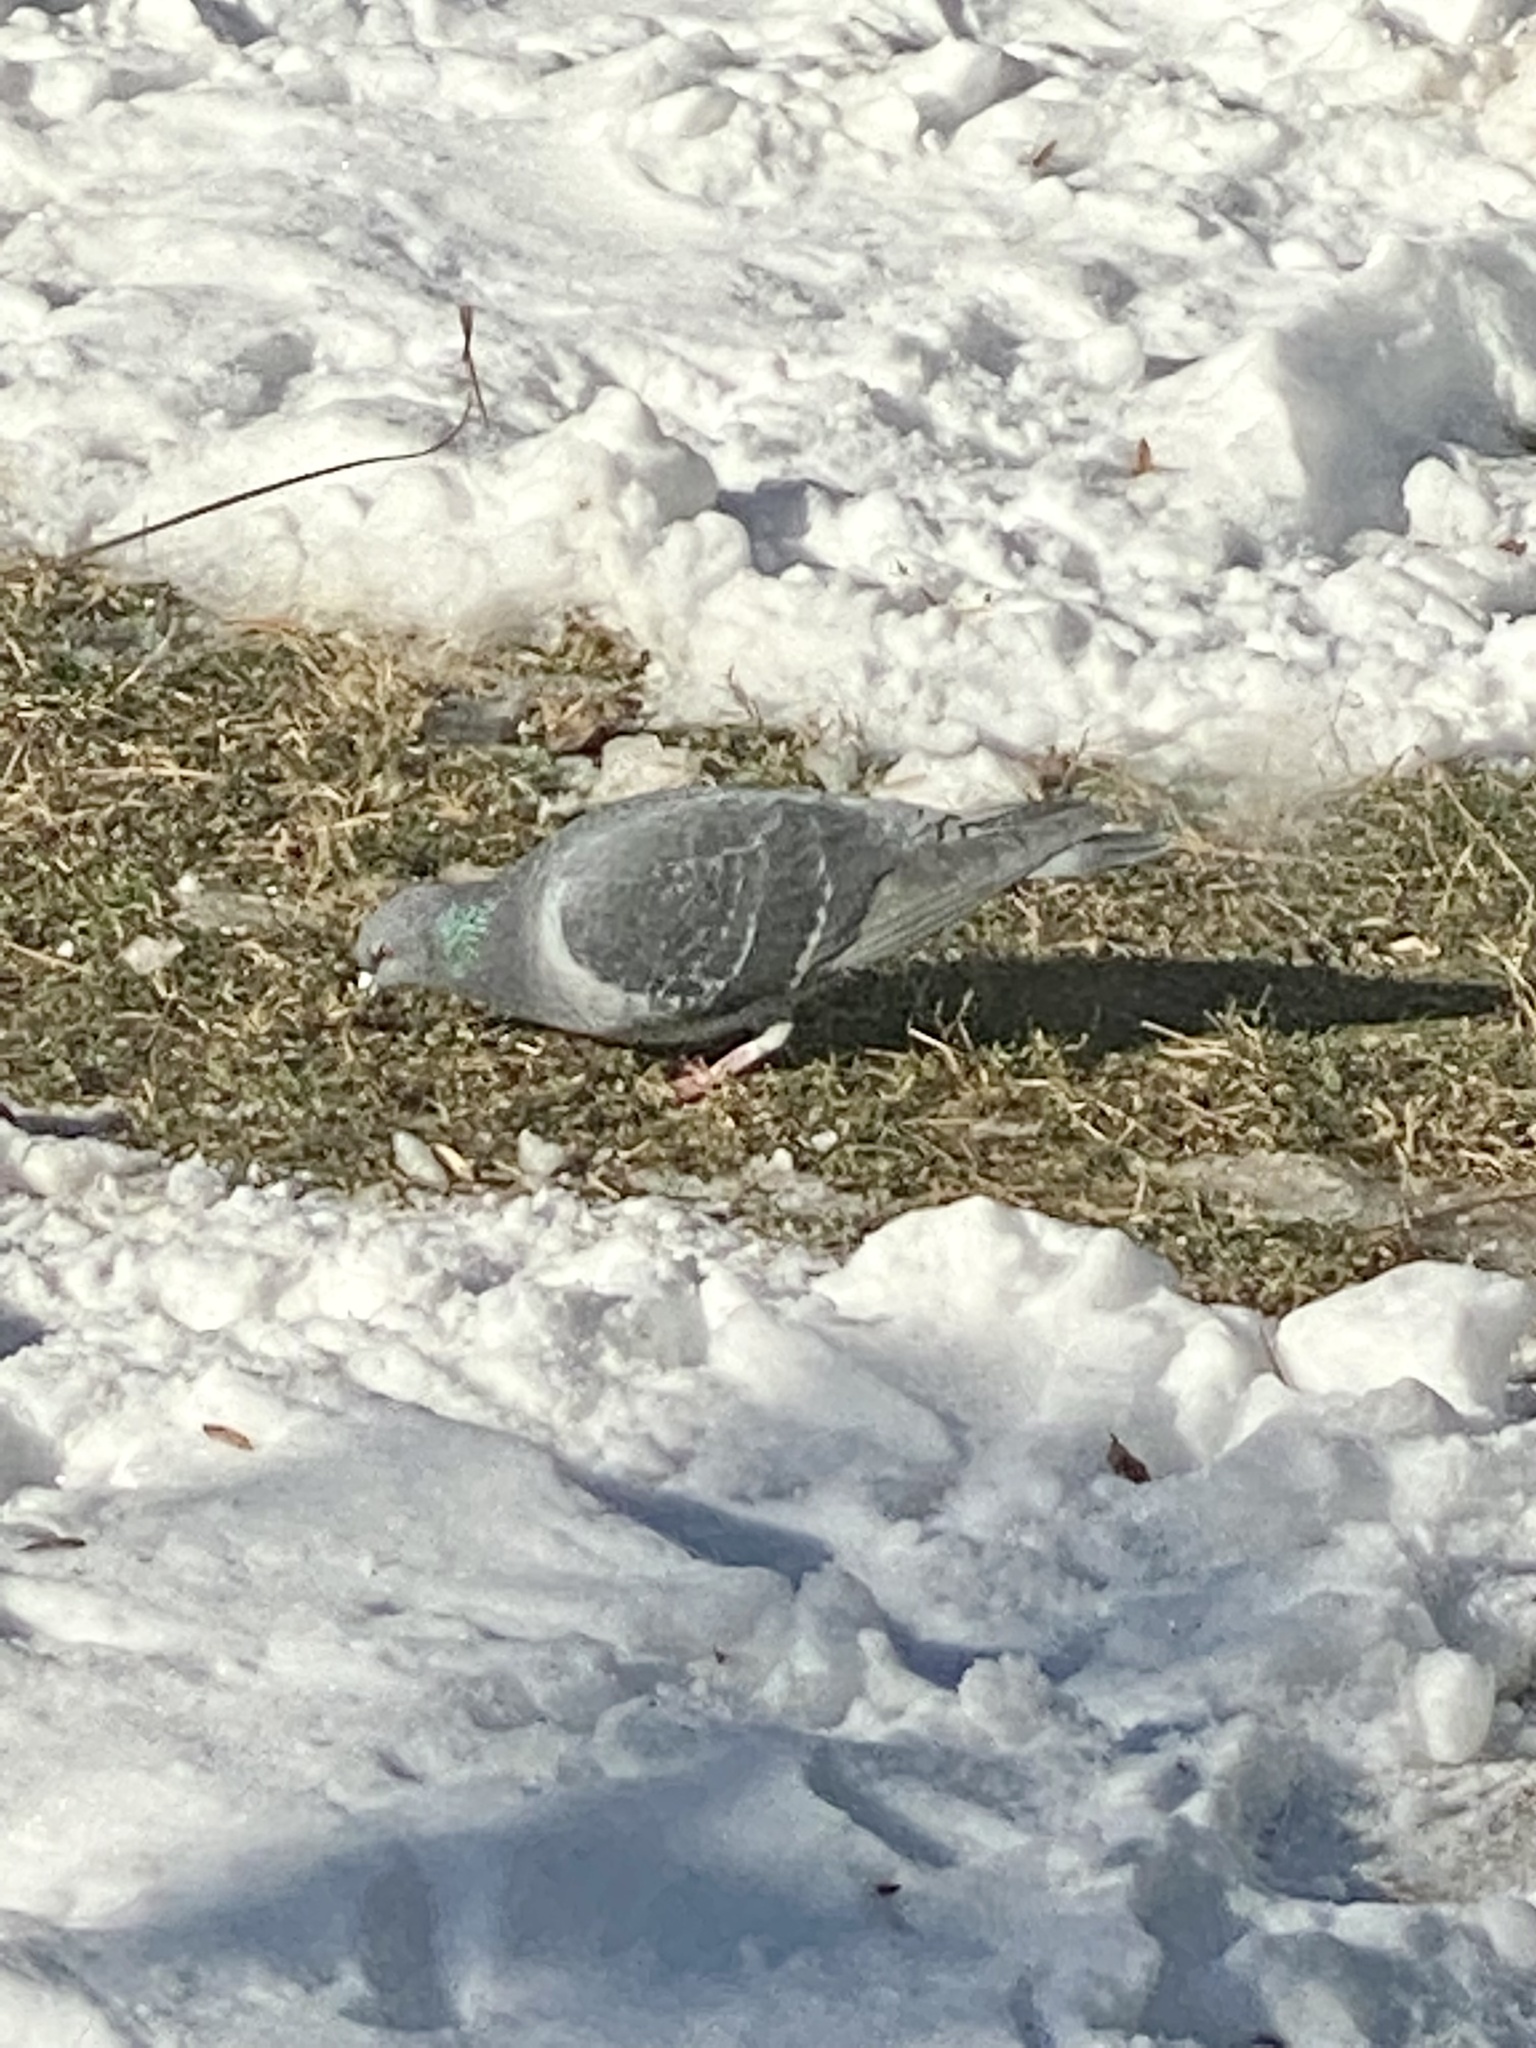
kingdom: Animalia
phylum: Chordata
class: Aves
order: Columbiformes
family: Columbidae
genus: Columba
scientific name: Columba livia
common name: Rock pigeon
